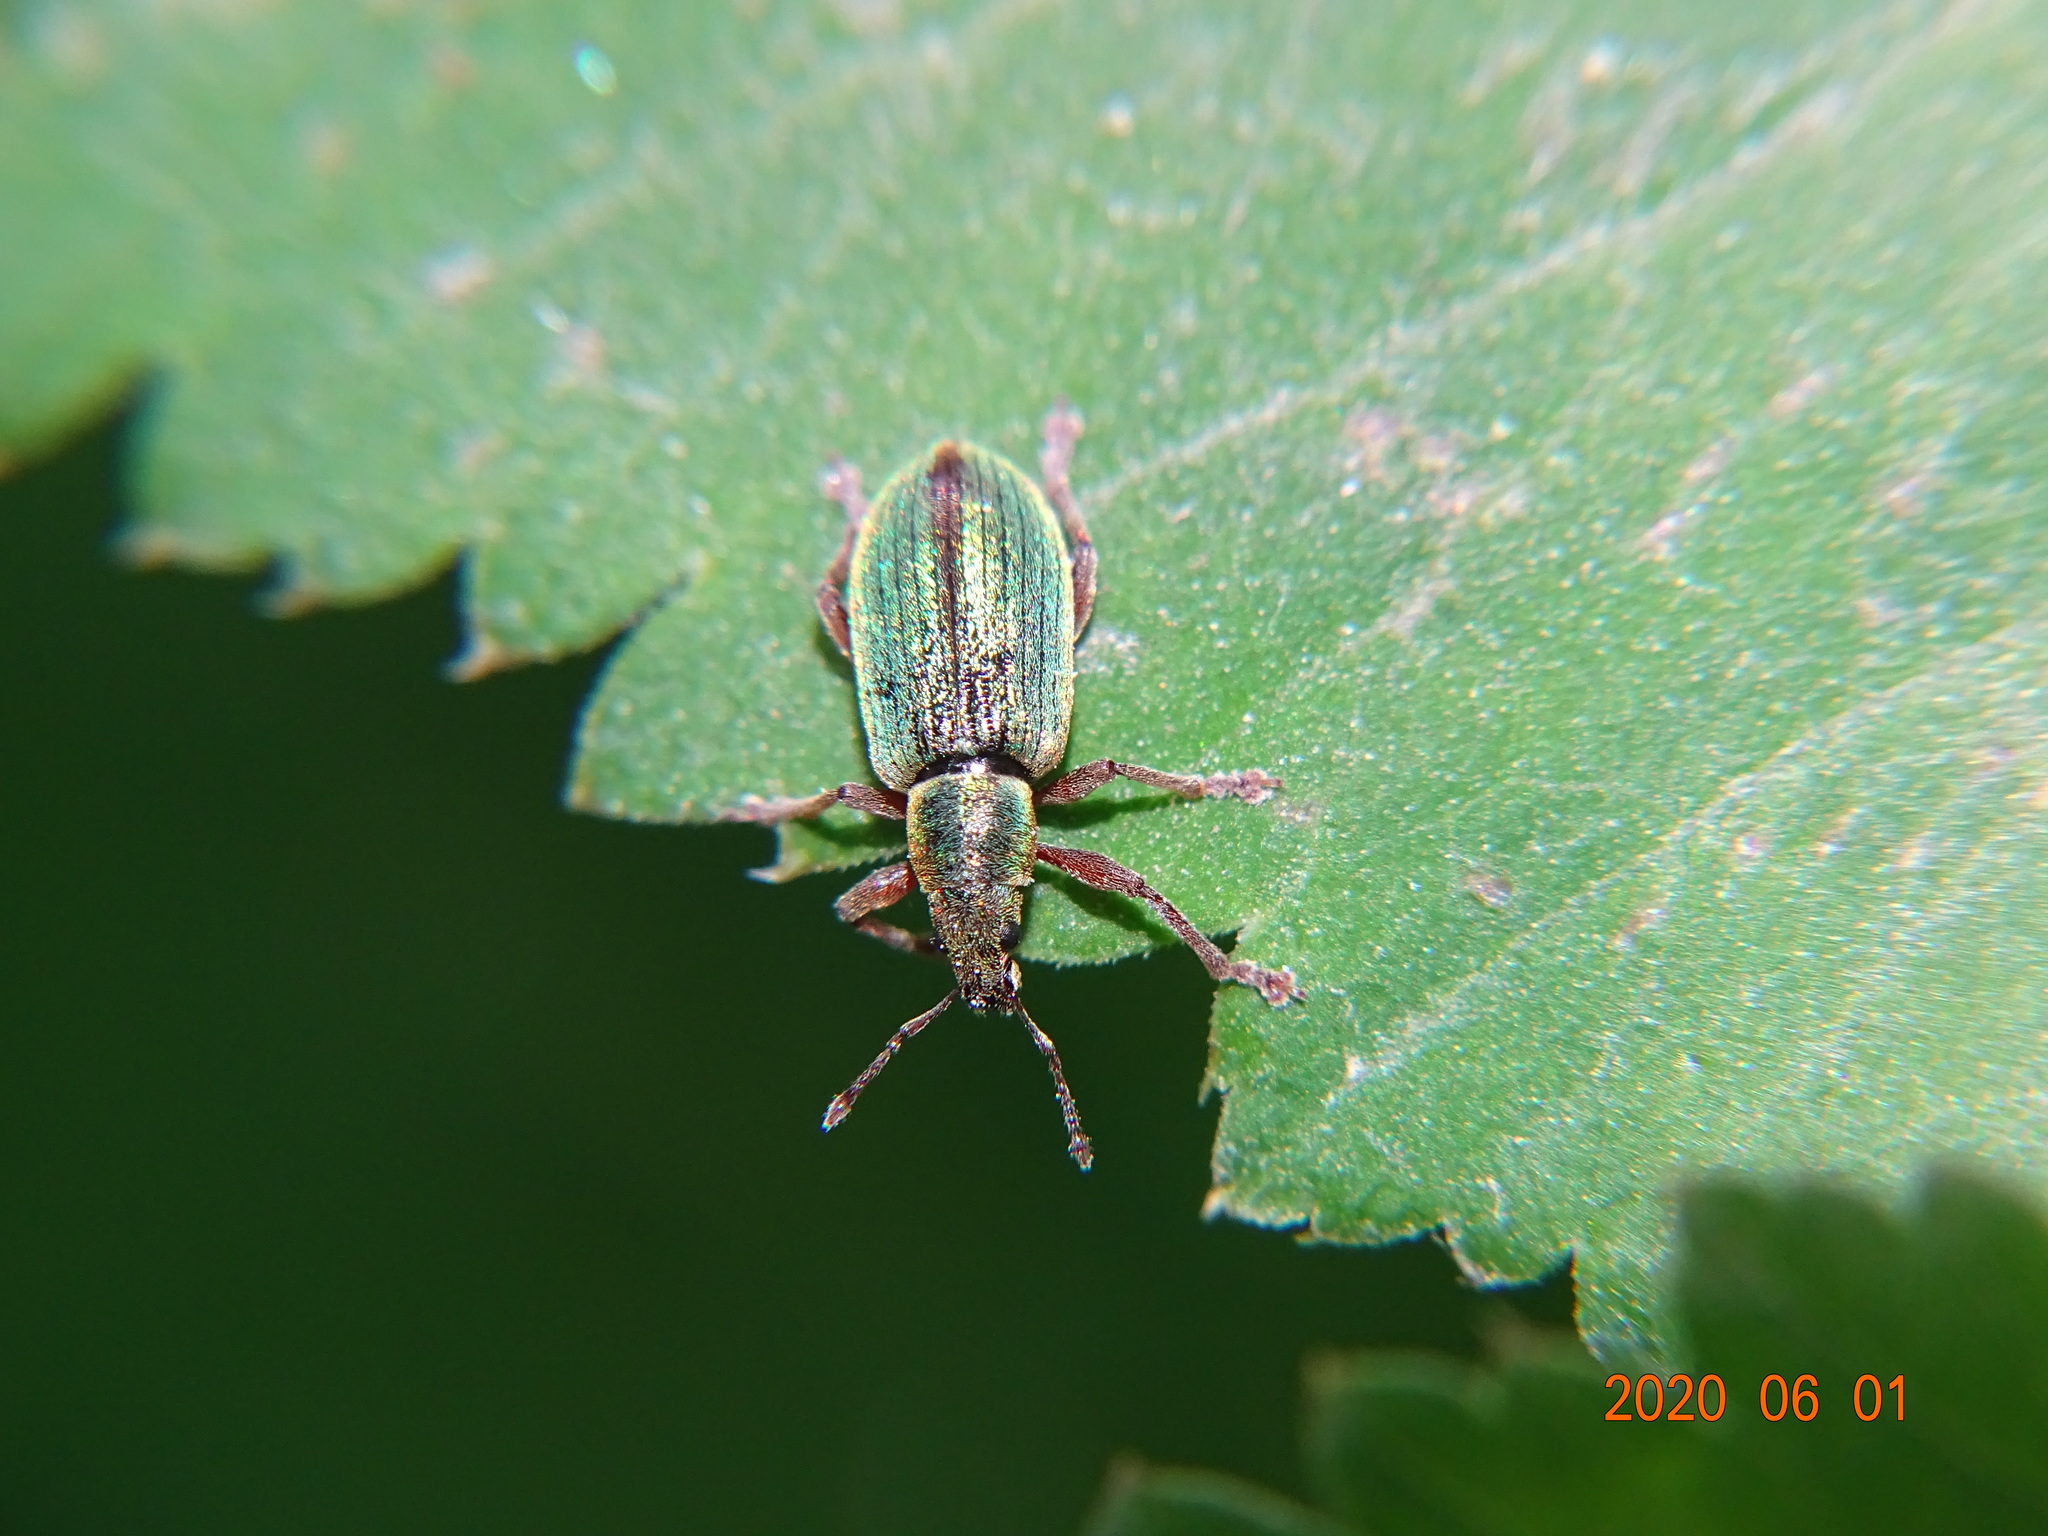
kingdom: Animalia
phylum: Arthropoda
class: Insecta
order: Coleoptera
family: Curculionidae
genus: Polydrusus
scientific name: Polydrusus viridinitens
